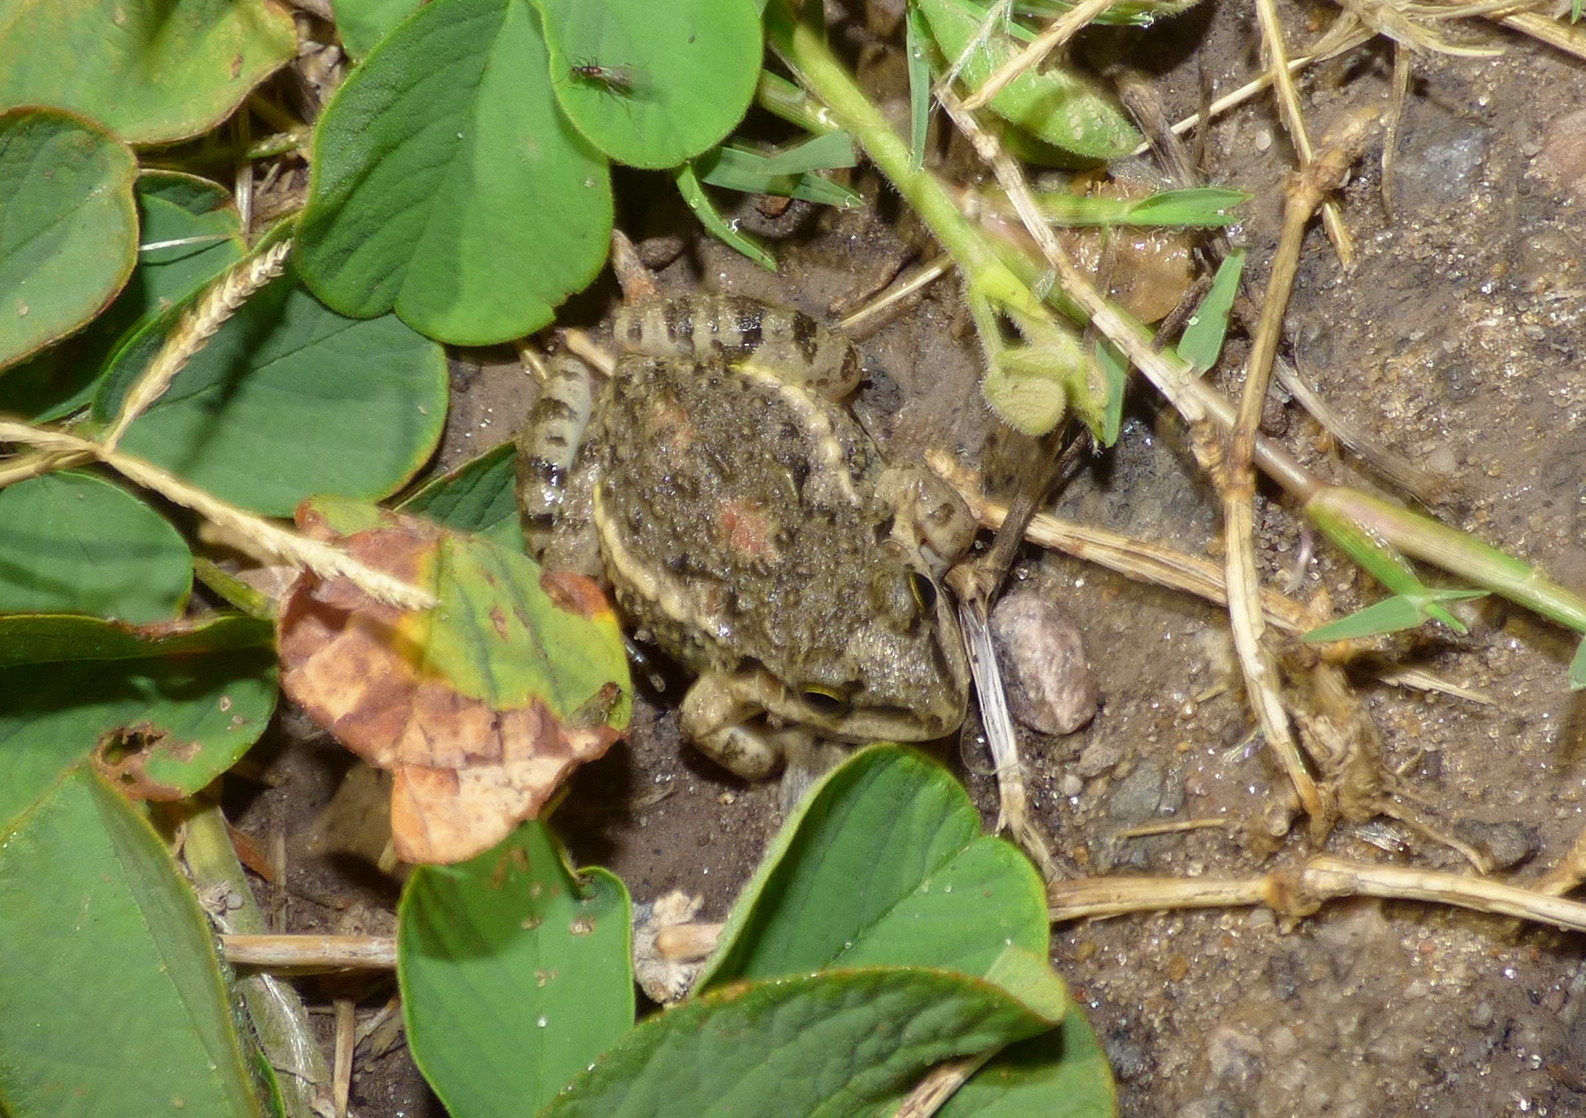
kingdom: Animalia
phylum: Chordata
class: Amphibia
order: Anura
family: Leptodactylidae
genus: Leptodactylus
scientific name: Leptodactylus latinasus
